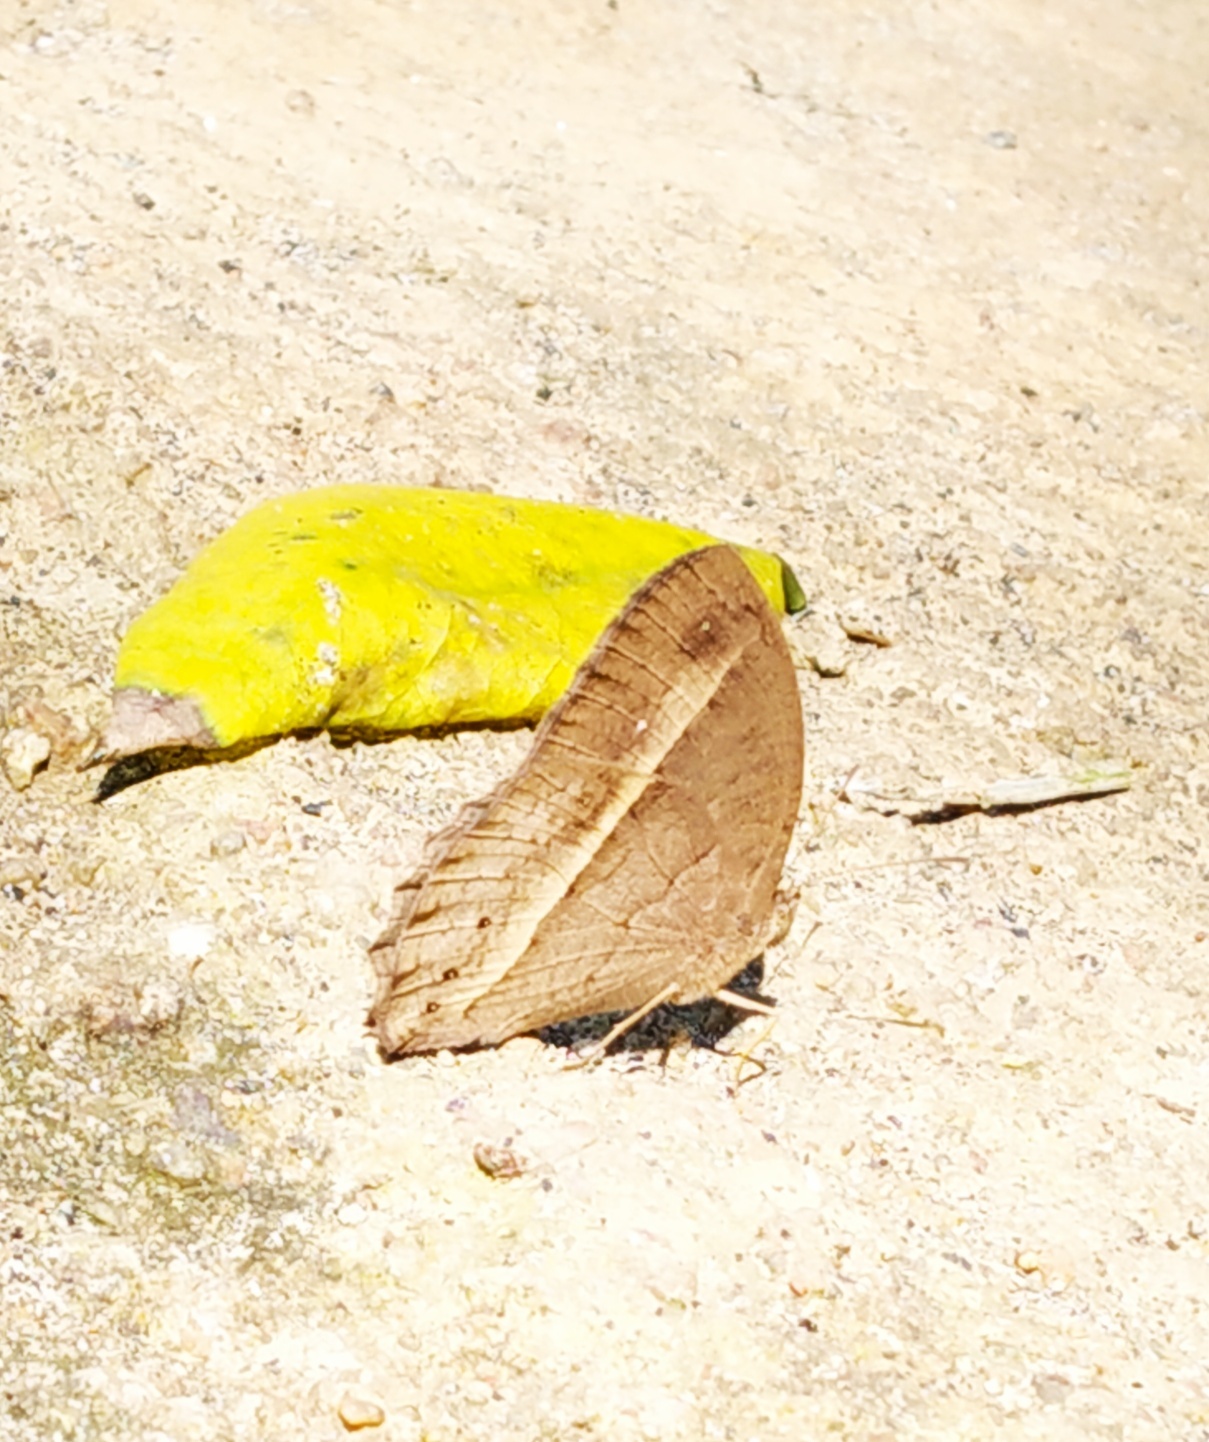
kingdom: Animalia
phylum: Arthropoda
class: Insecta
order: Lepidoptera
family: Nymphalidae
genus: Mycalesis
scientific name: Mycalesis visala
